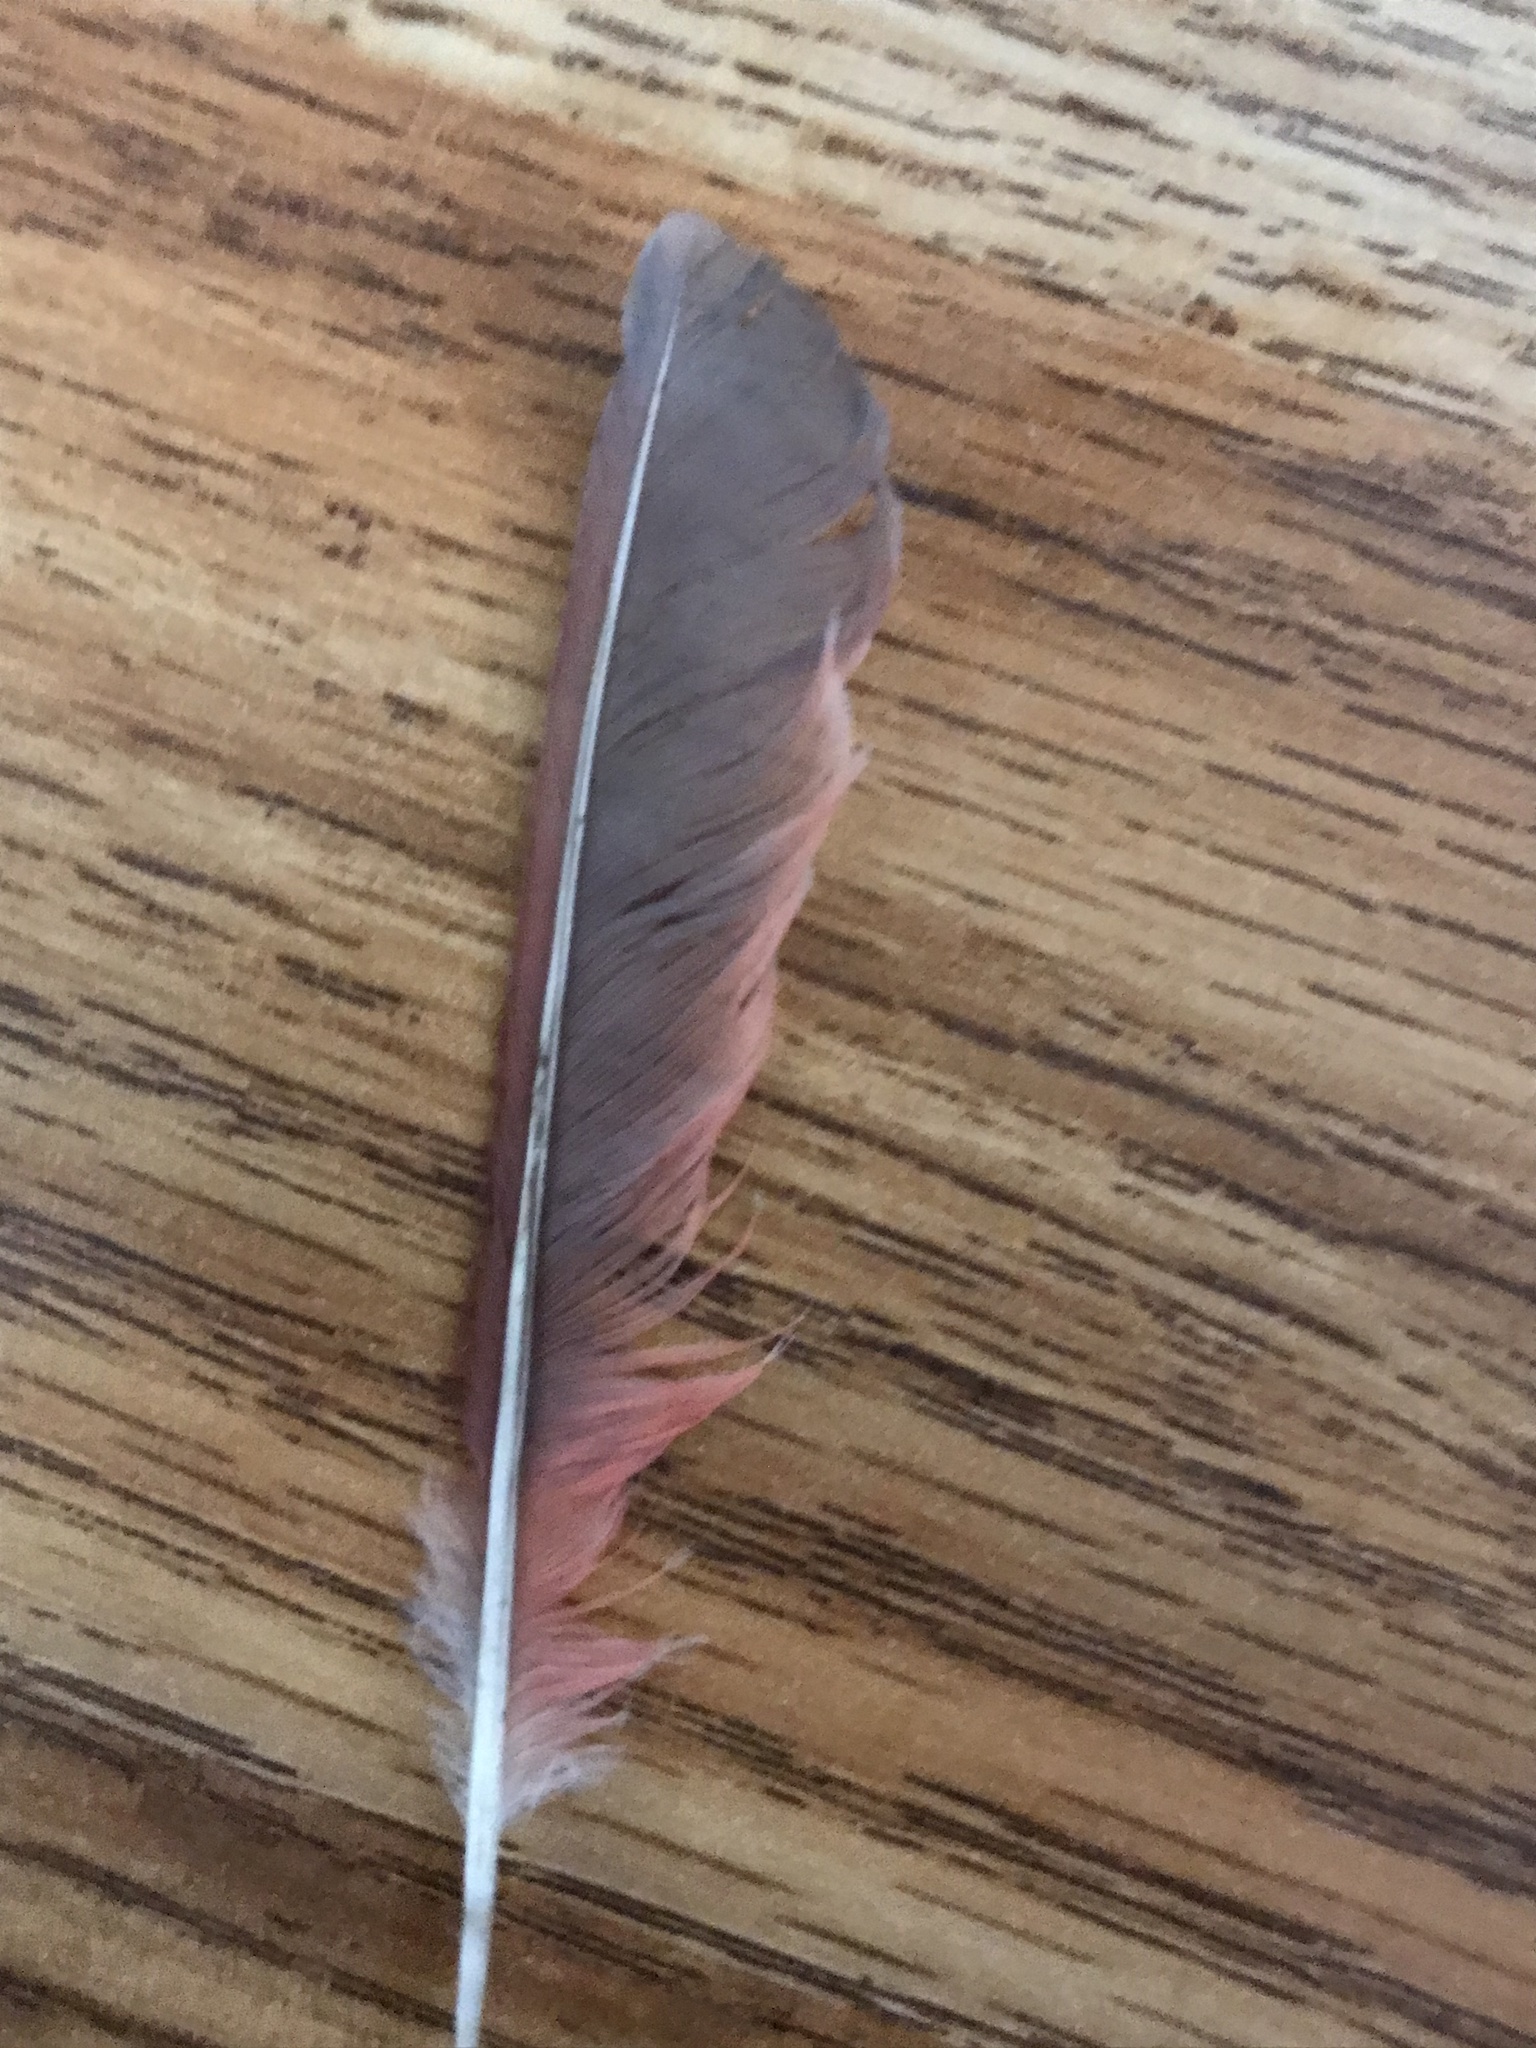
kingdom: Animalia
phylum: Chordata
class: Aves
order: Passeriformes
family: Cardinalidae
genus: Cardinalis
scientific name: Cardinalis cardinalis
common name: Northern cardinal
